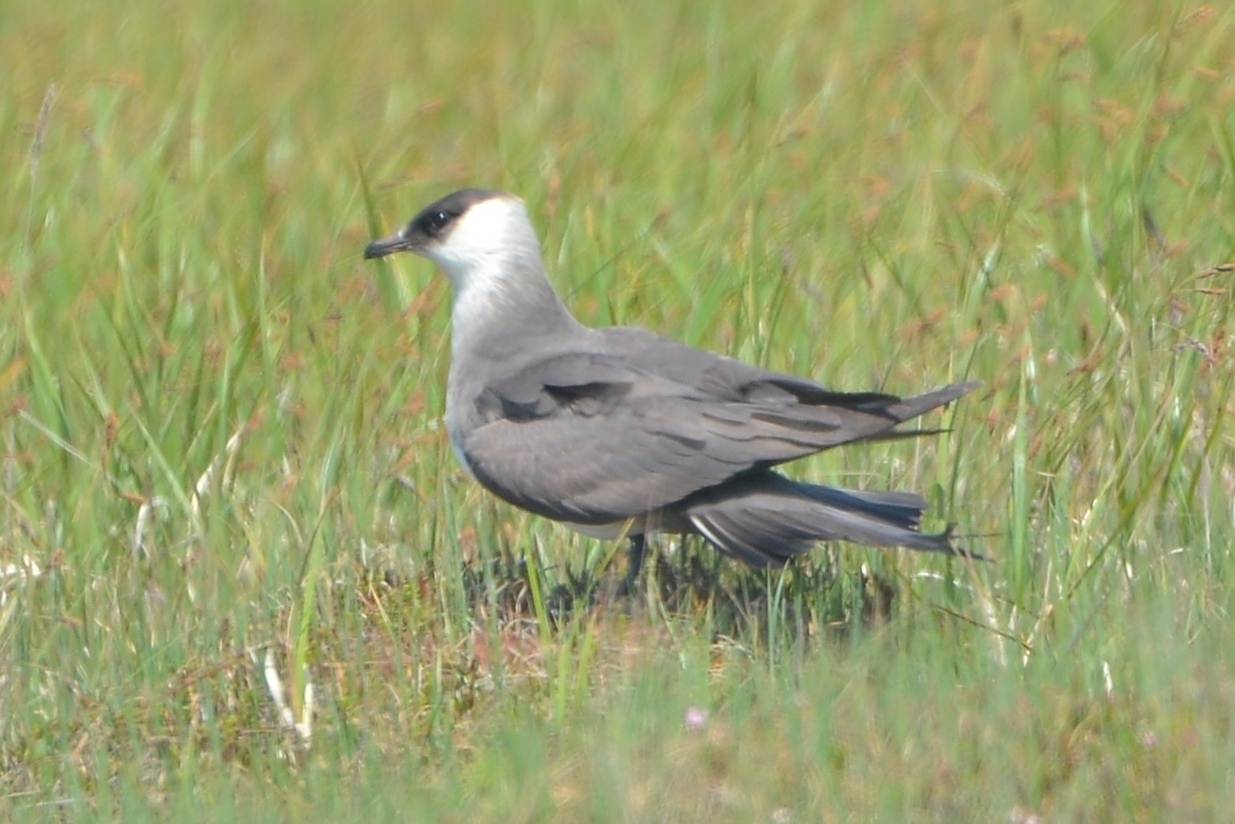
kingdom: Animalia
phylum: Chordata
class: Aves
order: Charadriiformes
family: Stercorariidae
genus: Stercorarius
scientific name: Stercorarius parasiticus
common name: Parasitic jaeger
